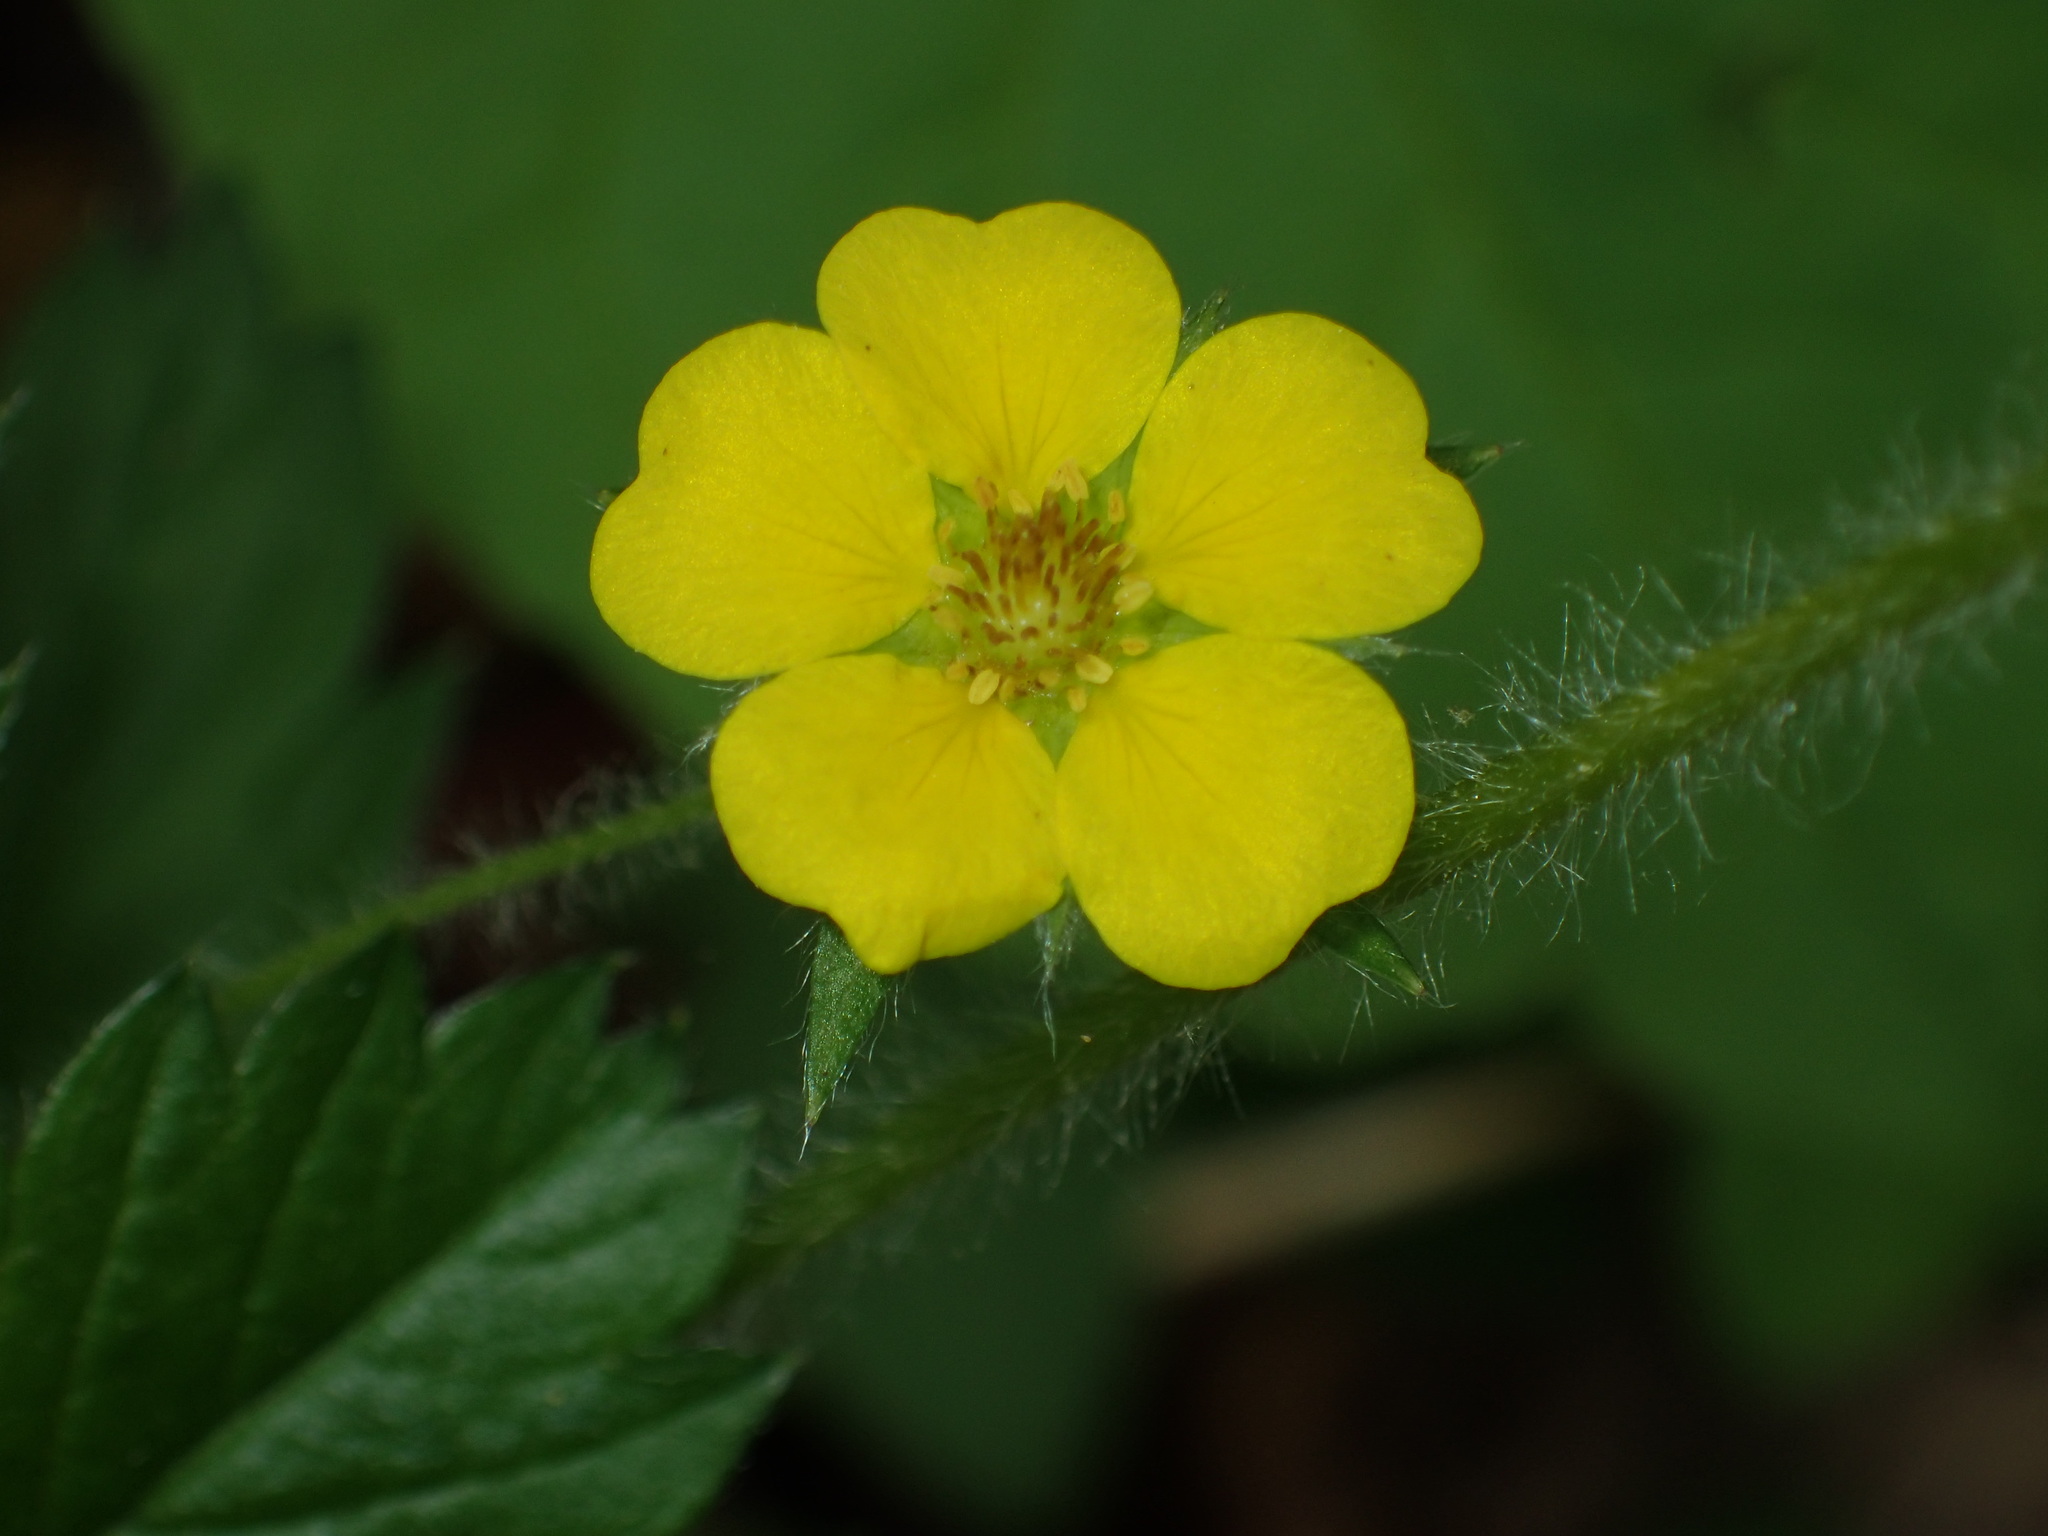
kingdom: Plantae
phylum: Tracheophyta
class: Magnoliopsida
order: Rosales
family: Rosaceae
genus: Potentilla
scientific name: Potentilla simplex
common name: Old field cinquefoil
